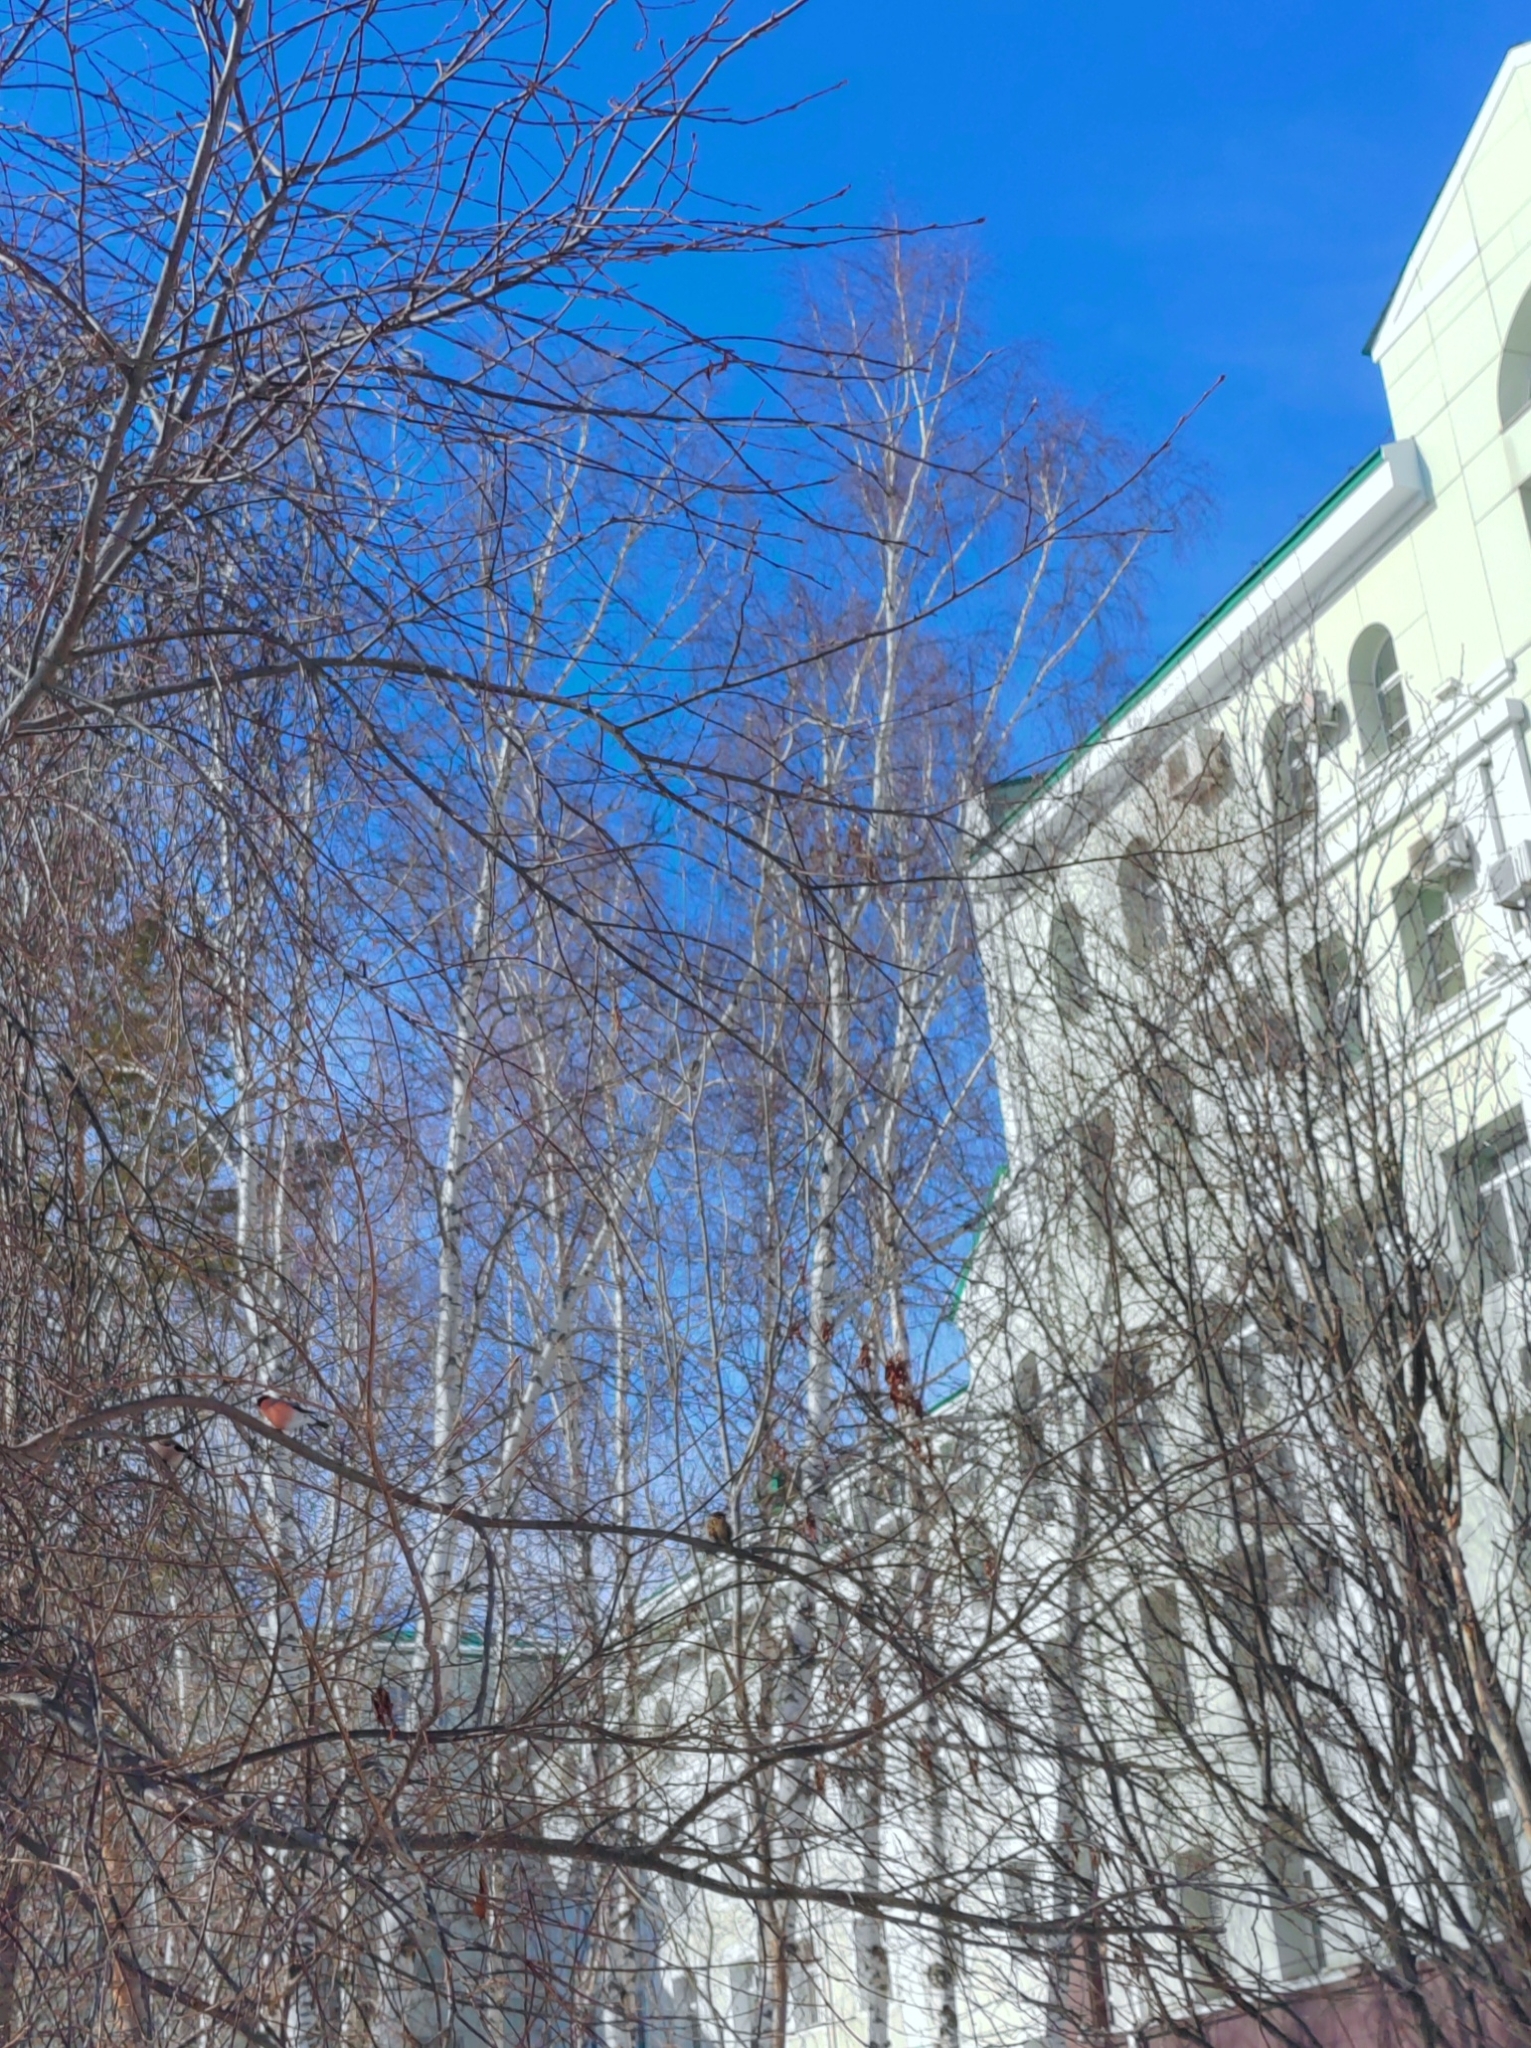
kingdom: Animalia
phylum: Chordata
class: Aves
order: Passeriformes
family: Fringillidae
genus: Pyrrhula
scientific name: Pyrrhula pyrrhula
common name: Eurasian bullfinch
